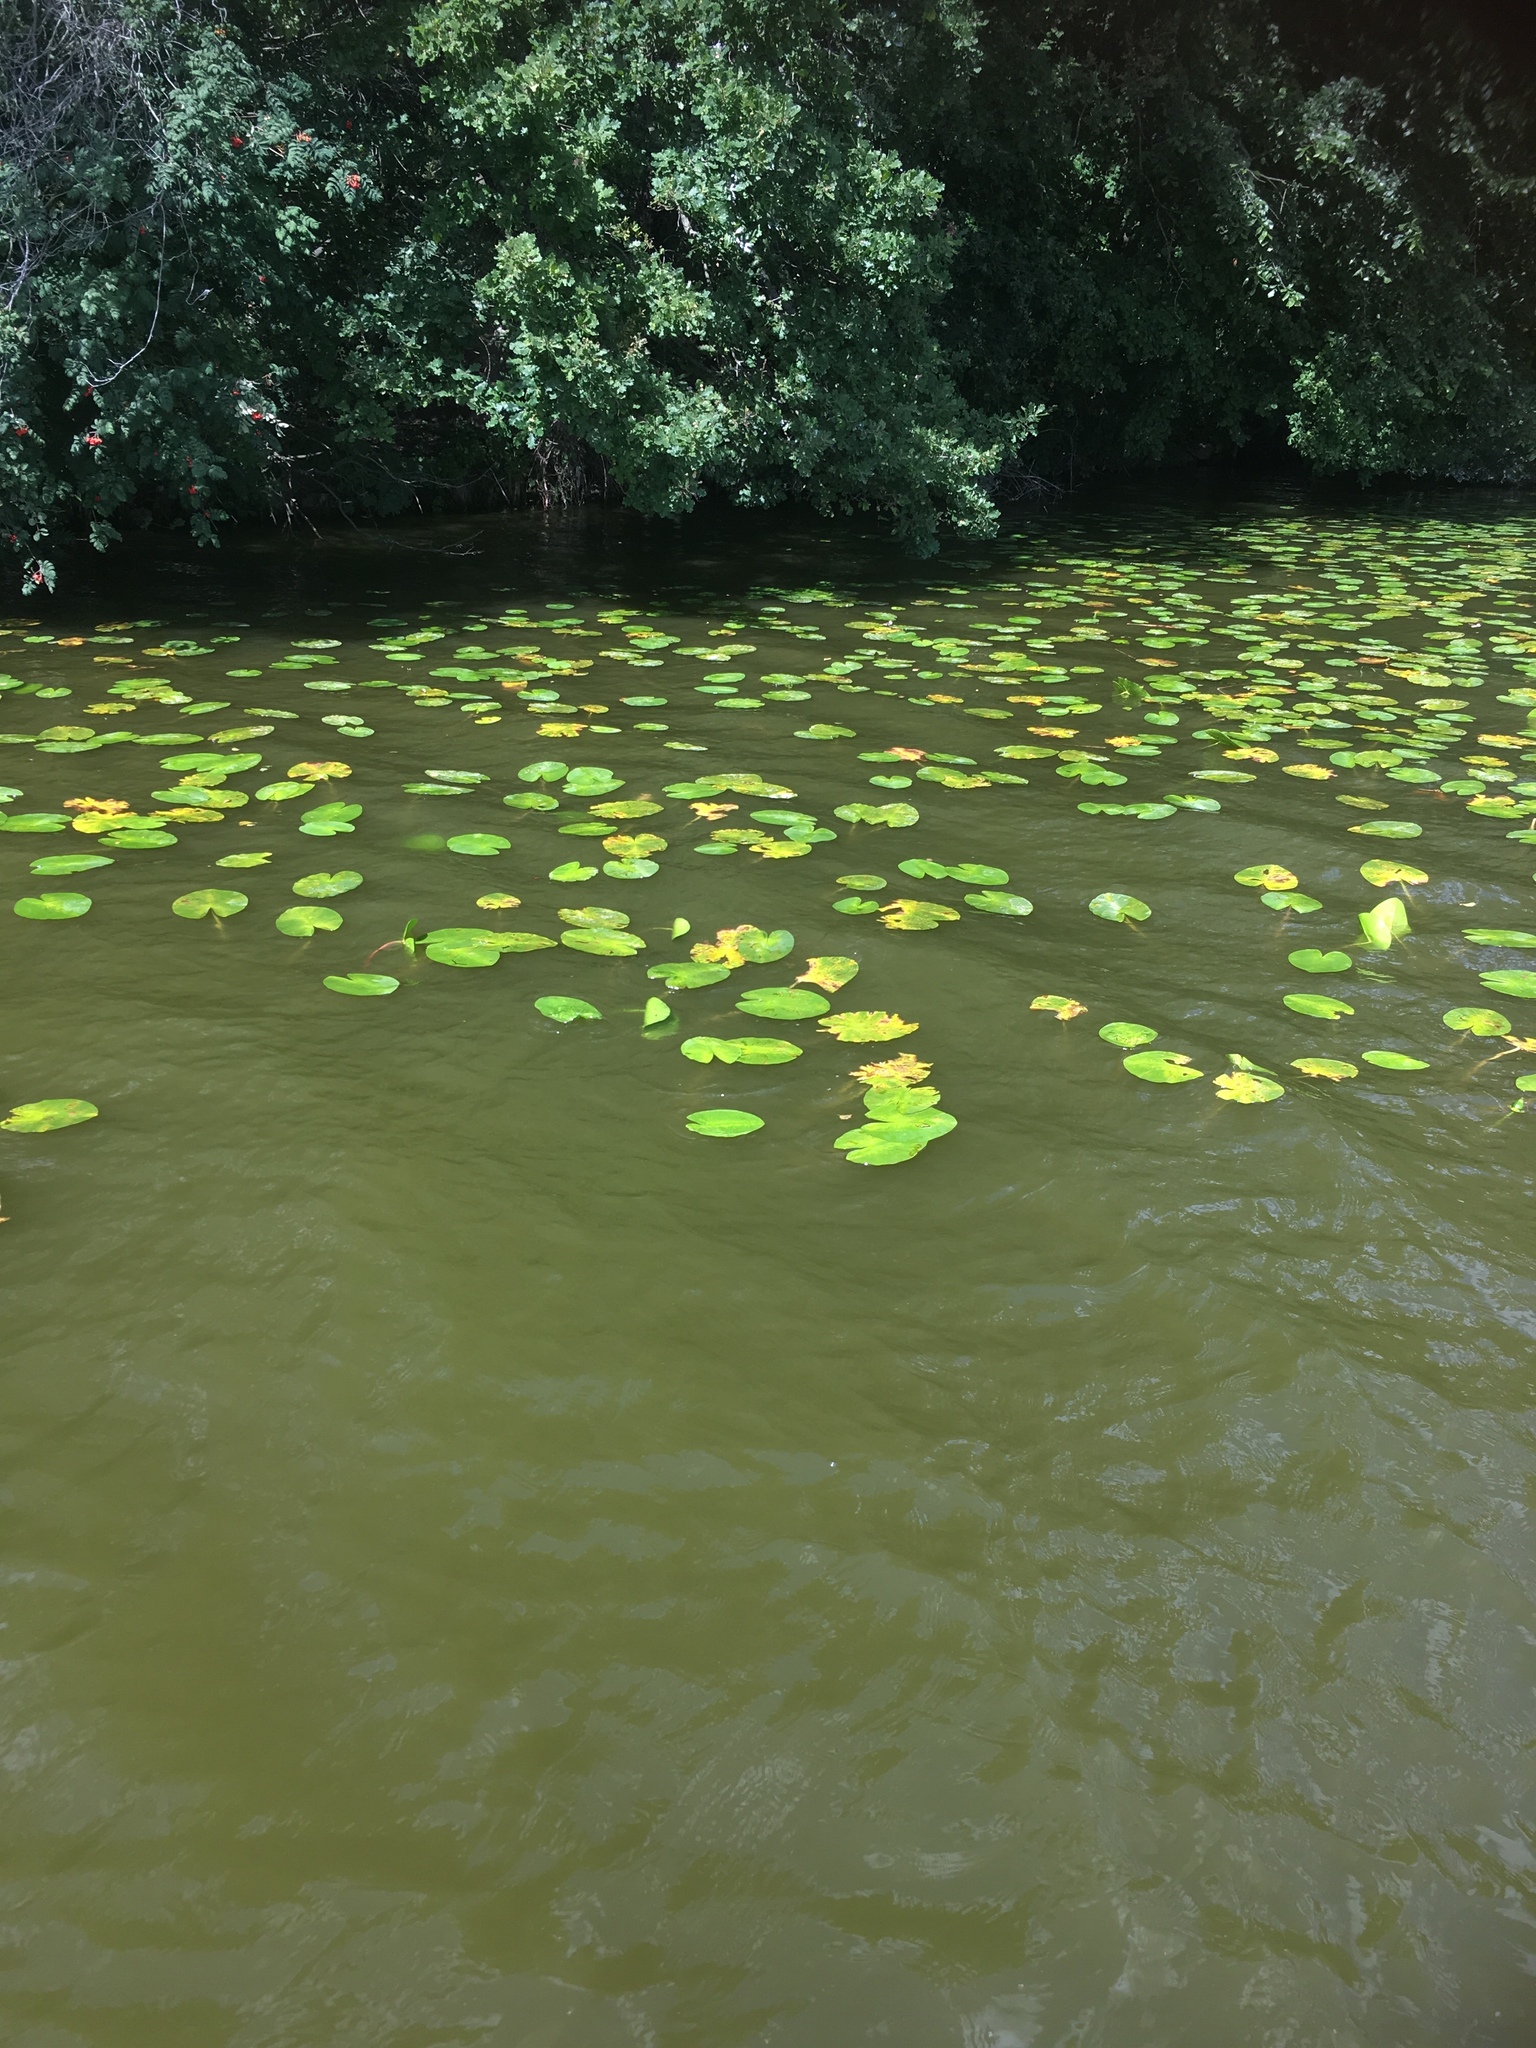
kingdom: Plantae
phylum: Tracheophyta
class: Magnoliopsida
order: Nymphaeales
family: Nymphaeaceae
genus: Nuphar
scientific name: Nuphar lutea
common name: Yellow water-lily
